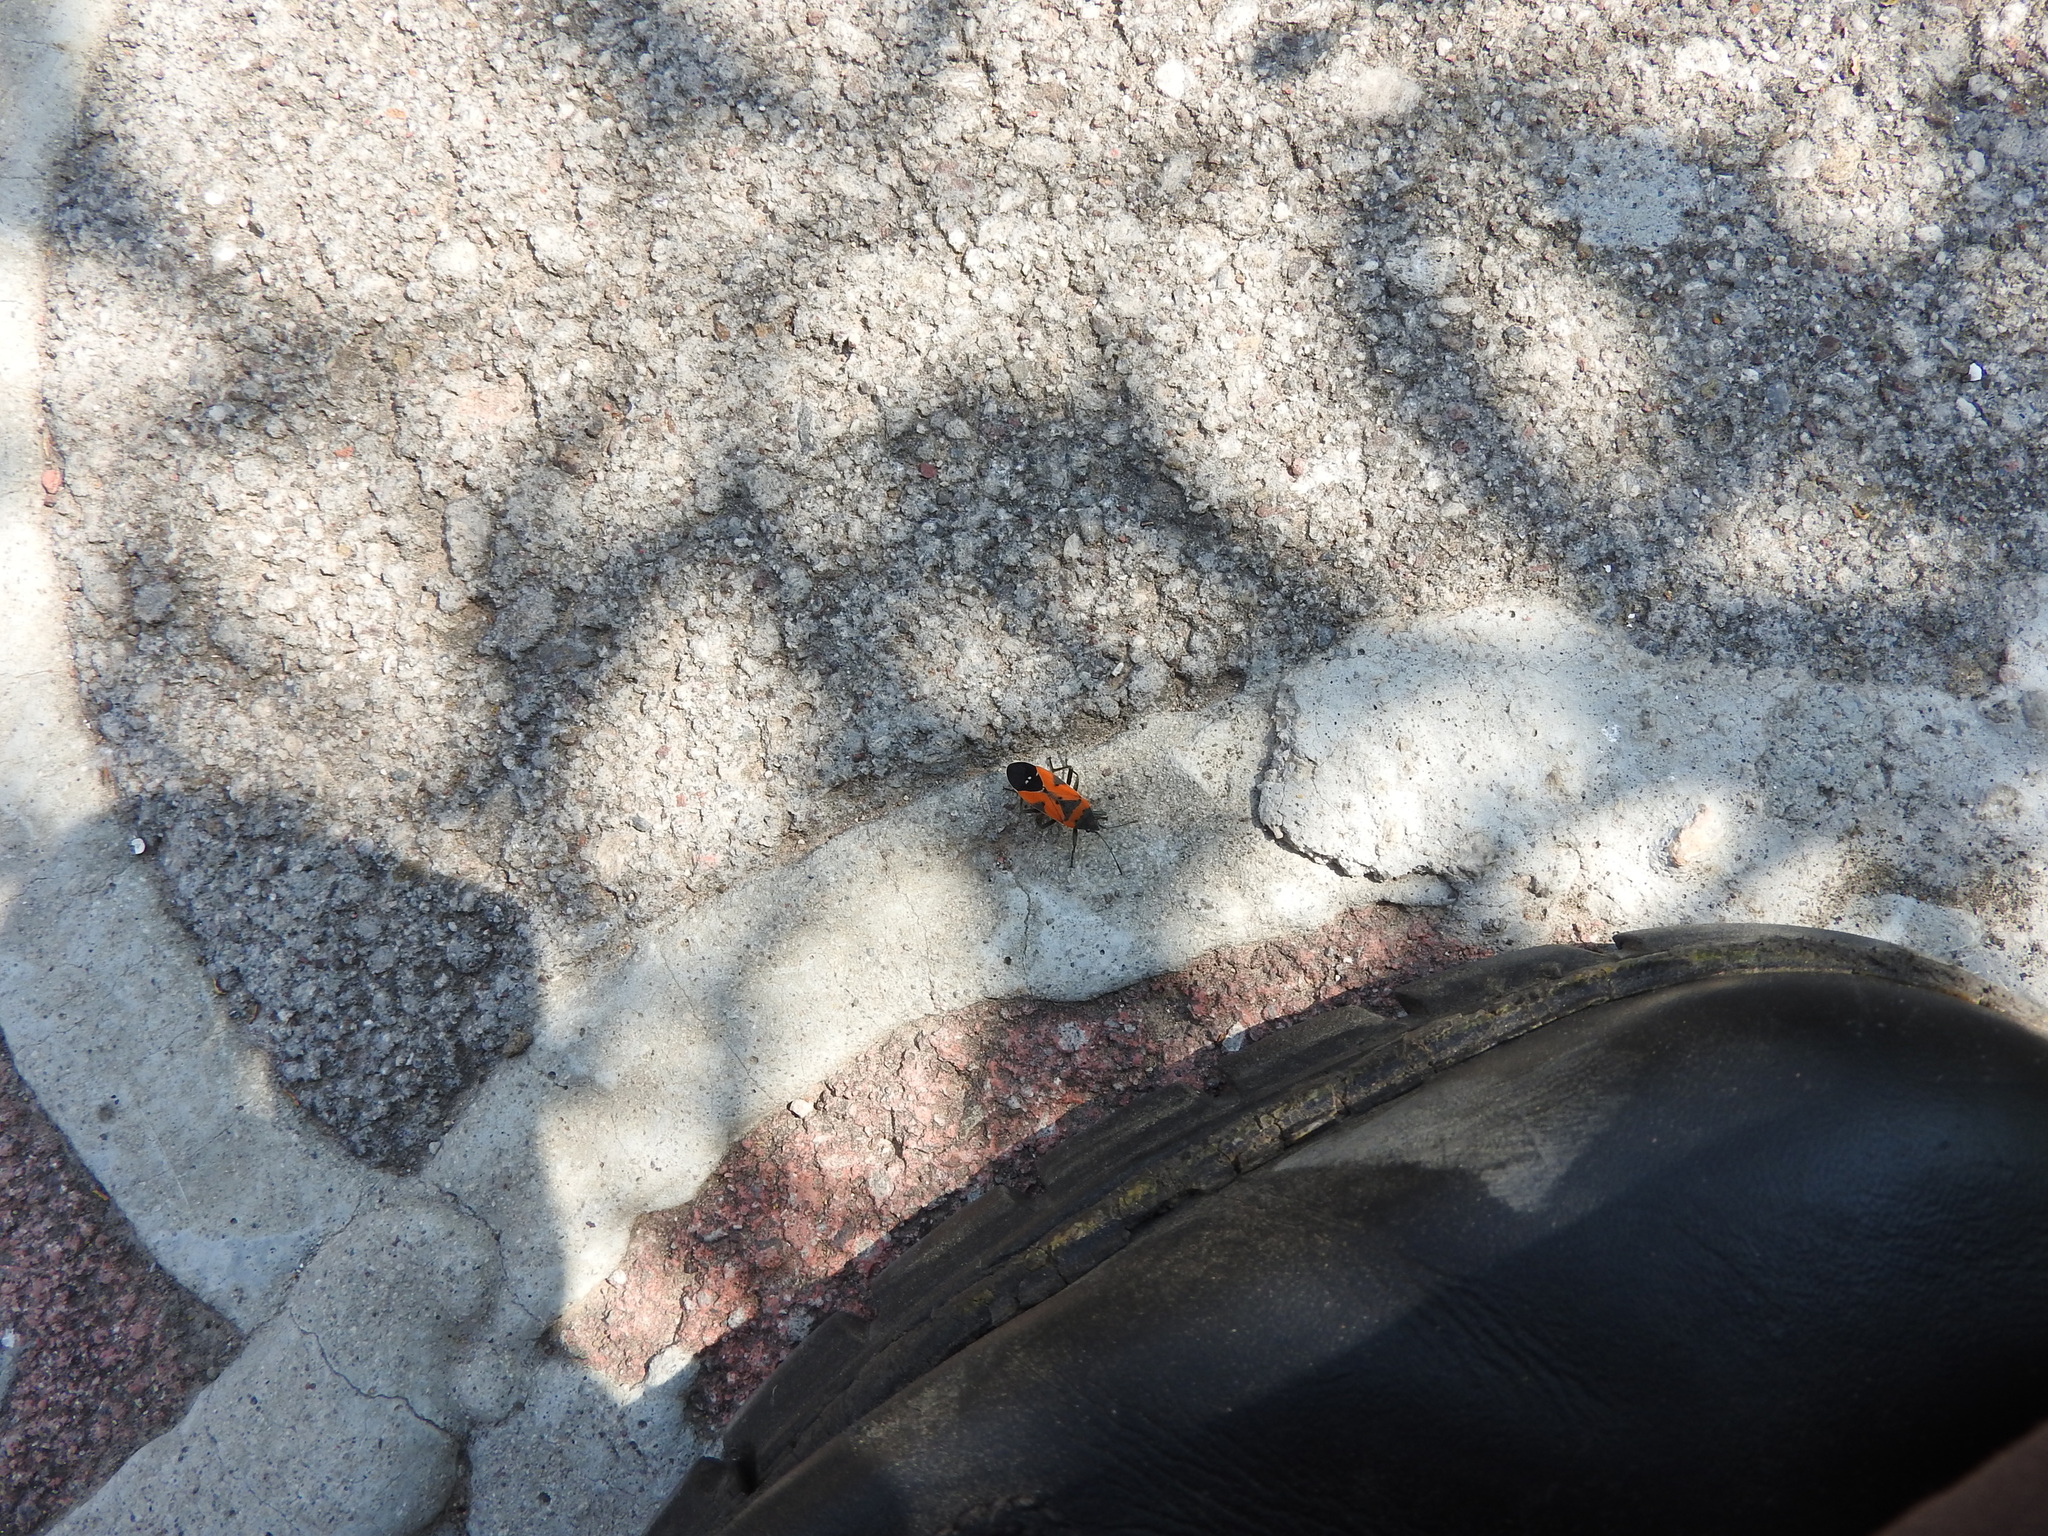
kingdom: Animalia
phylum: Arthropoda
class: Insecta
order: Hemiptera
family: Lygaeidae
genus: Lygaeus
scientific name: Lygaeus reclivatus
